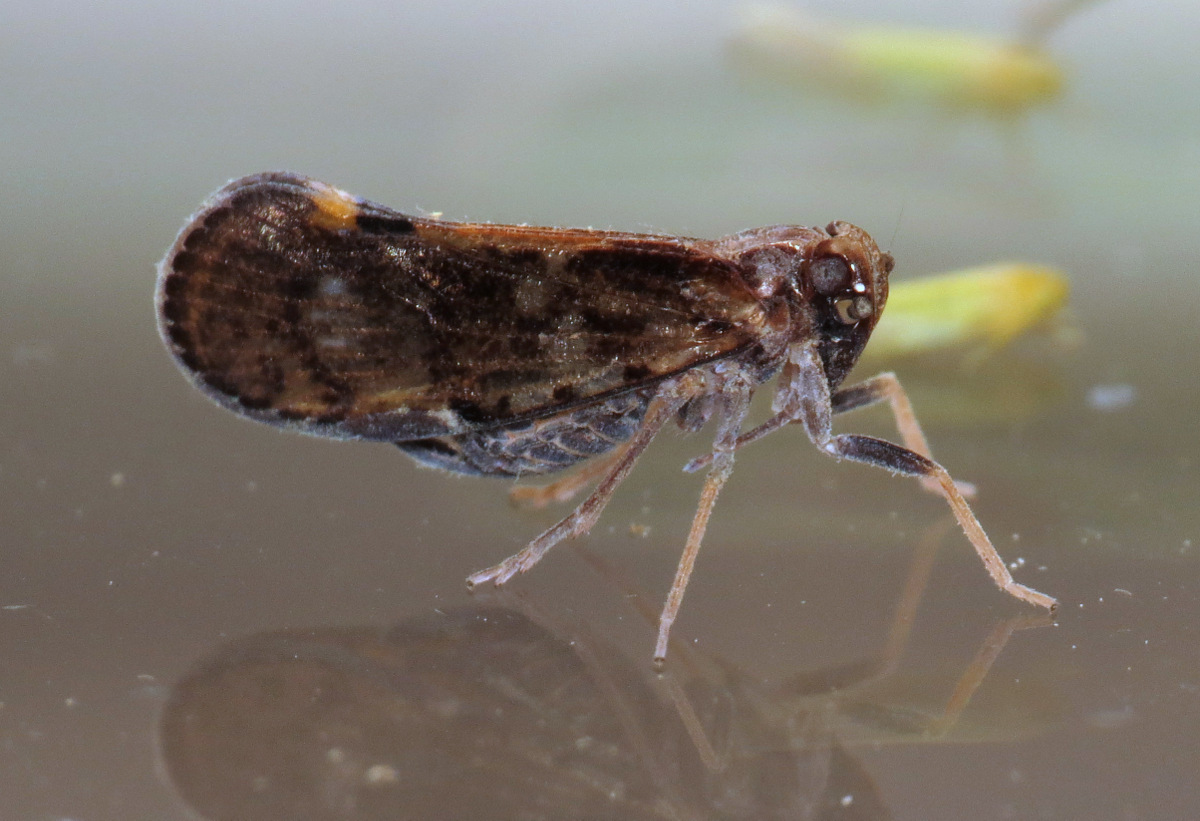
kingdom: Animalia
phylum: Arthropoda
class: Insecta
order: Hemiptera
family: Cixiidae
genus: Pintalia
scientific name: Pintalia vibex
